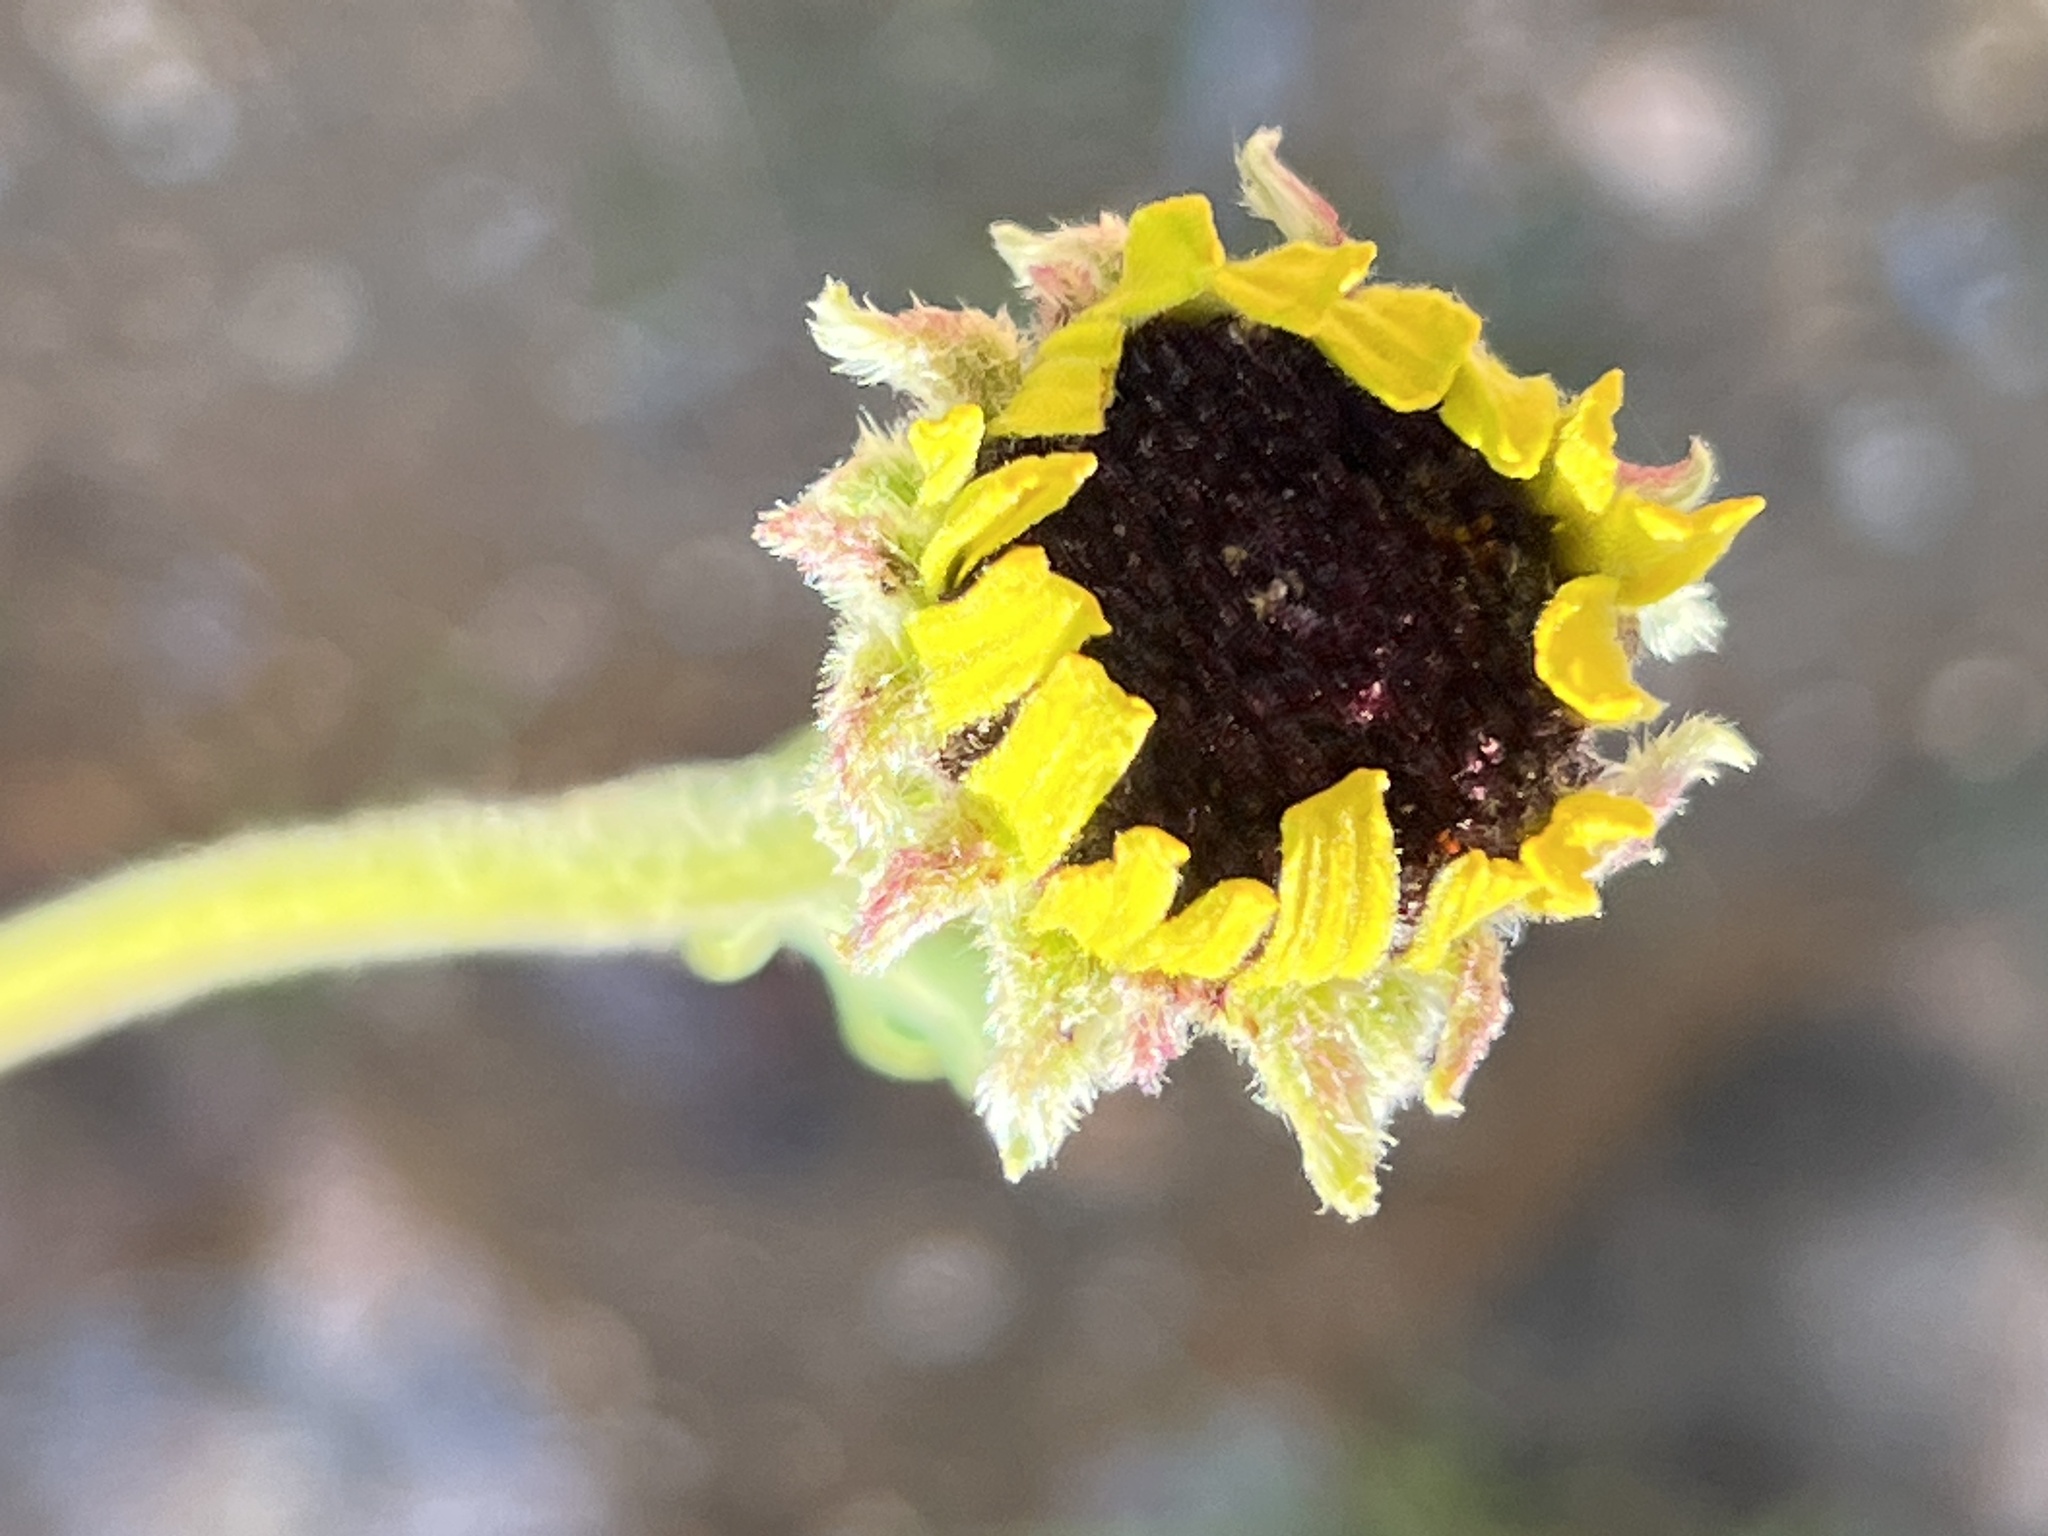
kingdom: Plantae
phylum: Tracheophyta
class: Magnoliopsida
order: Asterales
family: Asteraceae
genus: Encelia
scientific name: Encelia californica
